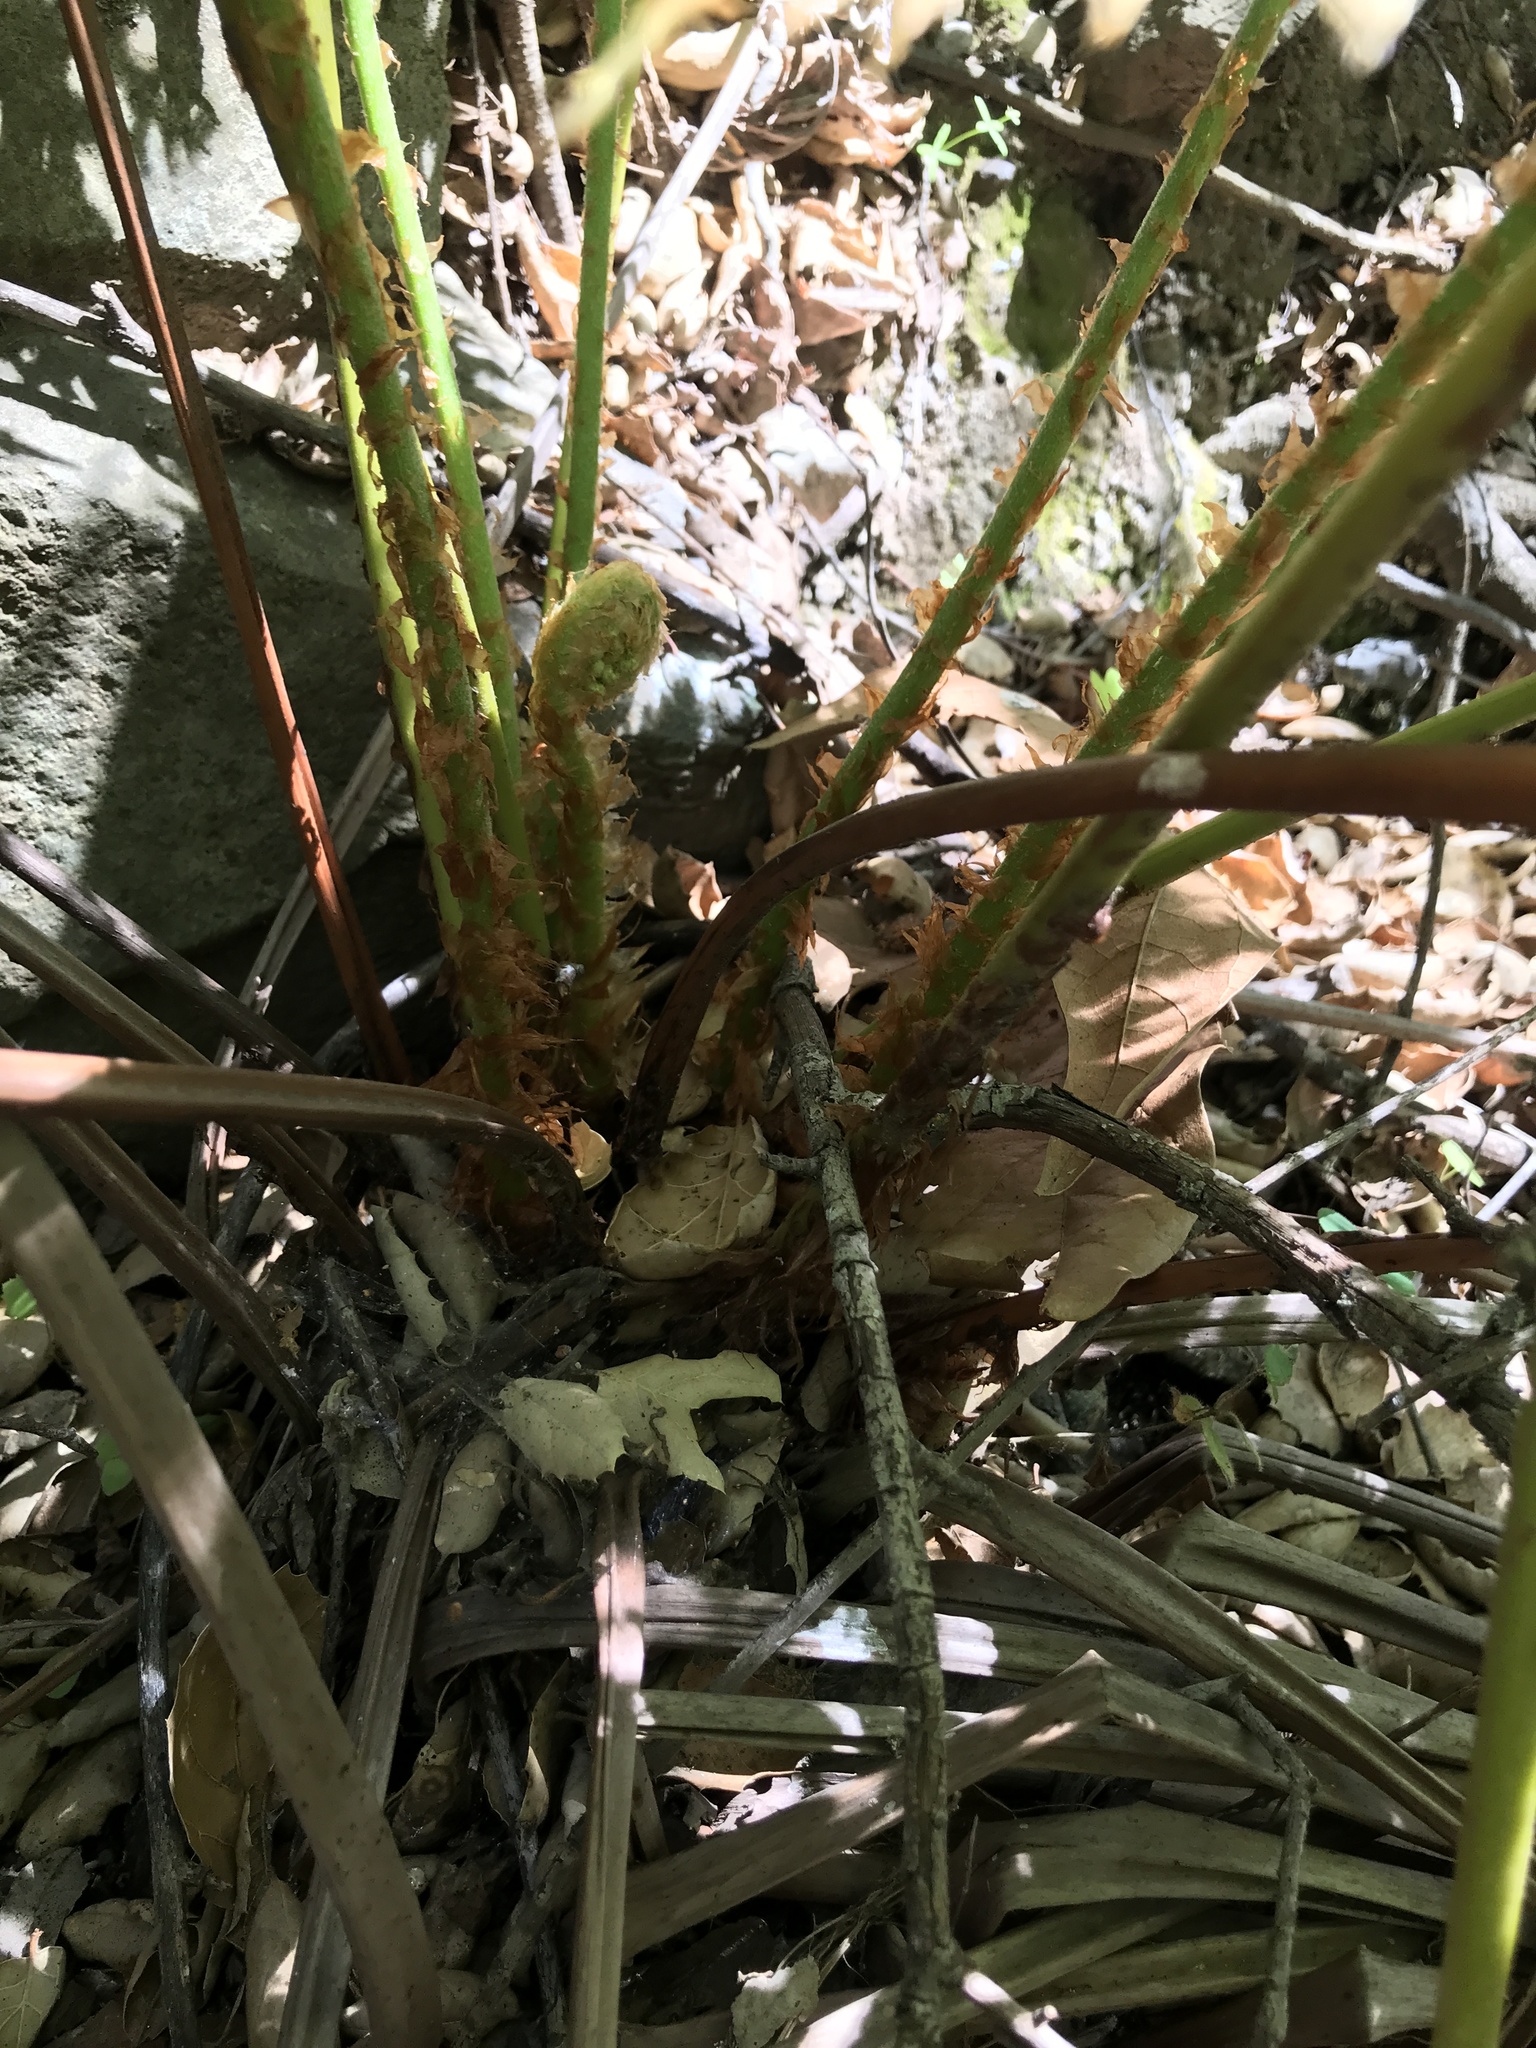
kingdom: Plantae
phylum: Tracheophyta
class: Polypodiopsida
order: Polypodiales
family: Blechnaceae
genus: Woodwardia
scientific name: Woodwardia fimbriata
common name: Giant chain fern
